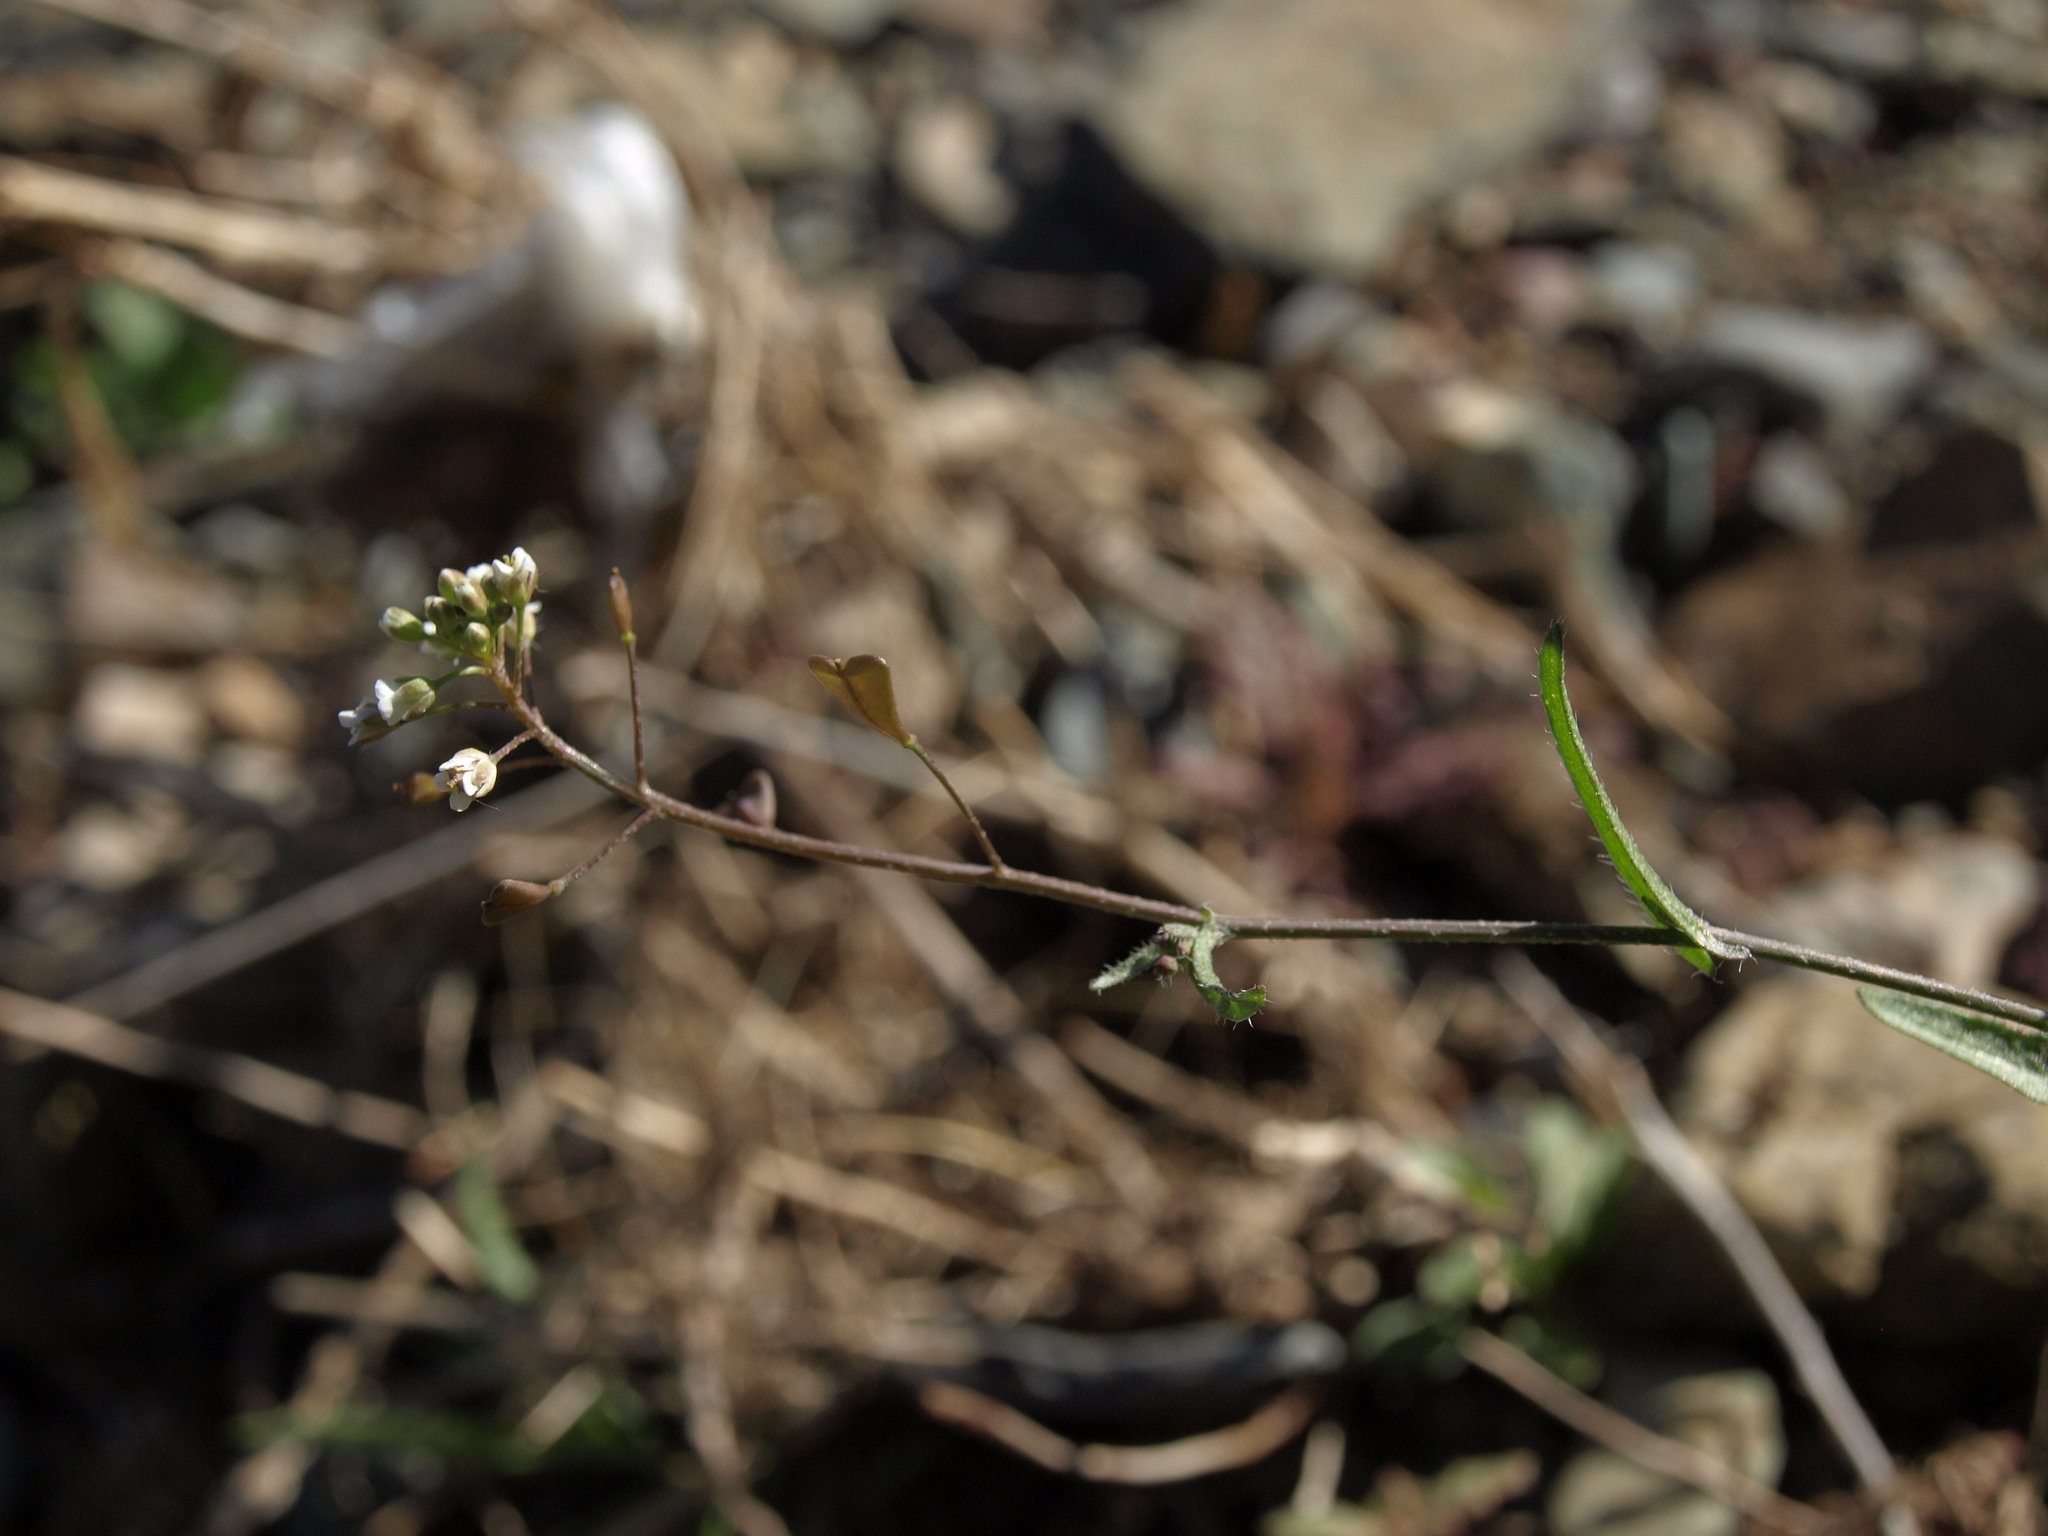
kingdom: Plantae
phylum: Tracheophyta
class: Magnoliopsida
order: Brassicales
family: Brassicaceae
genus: Capsella
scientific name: Capsella bursa-pastoris
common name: Shepherd's purse
